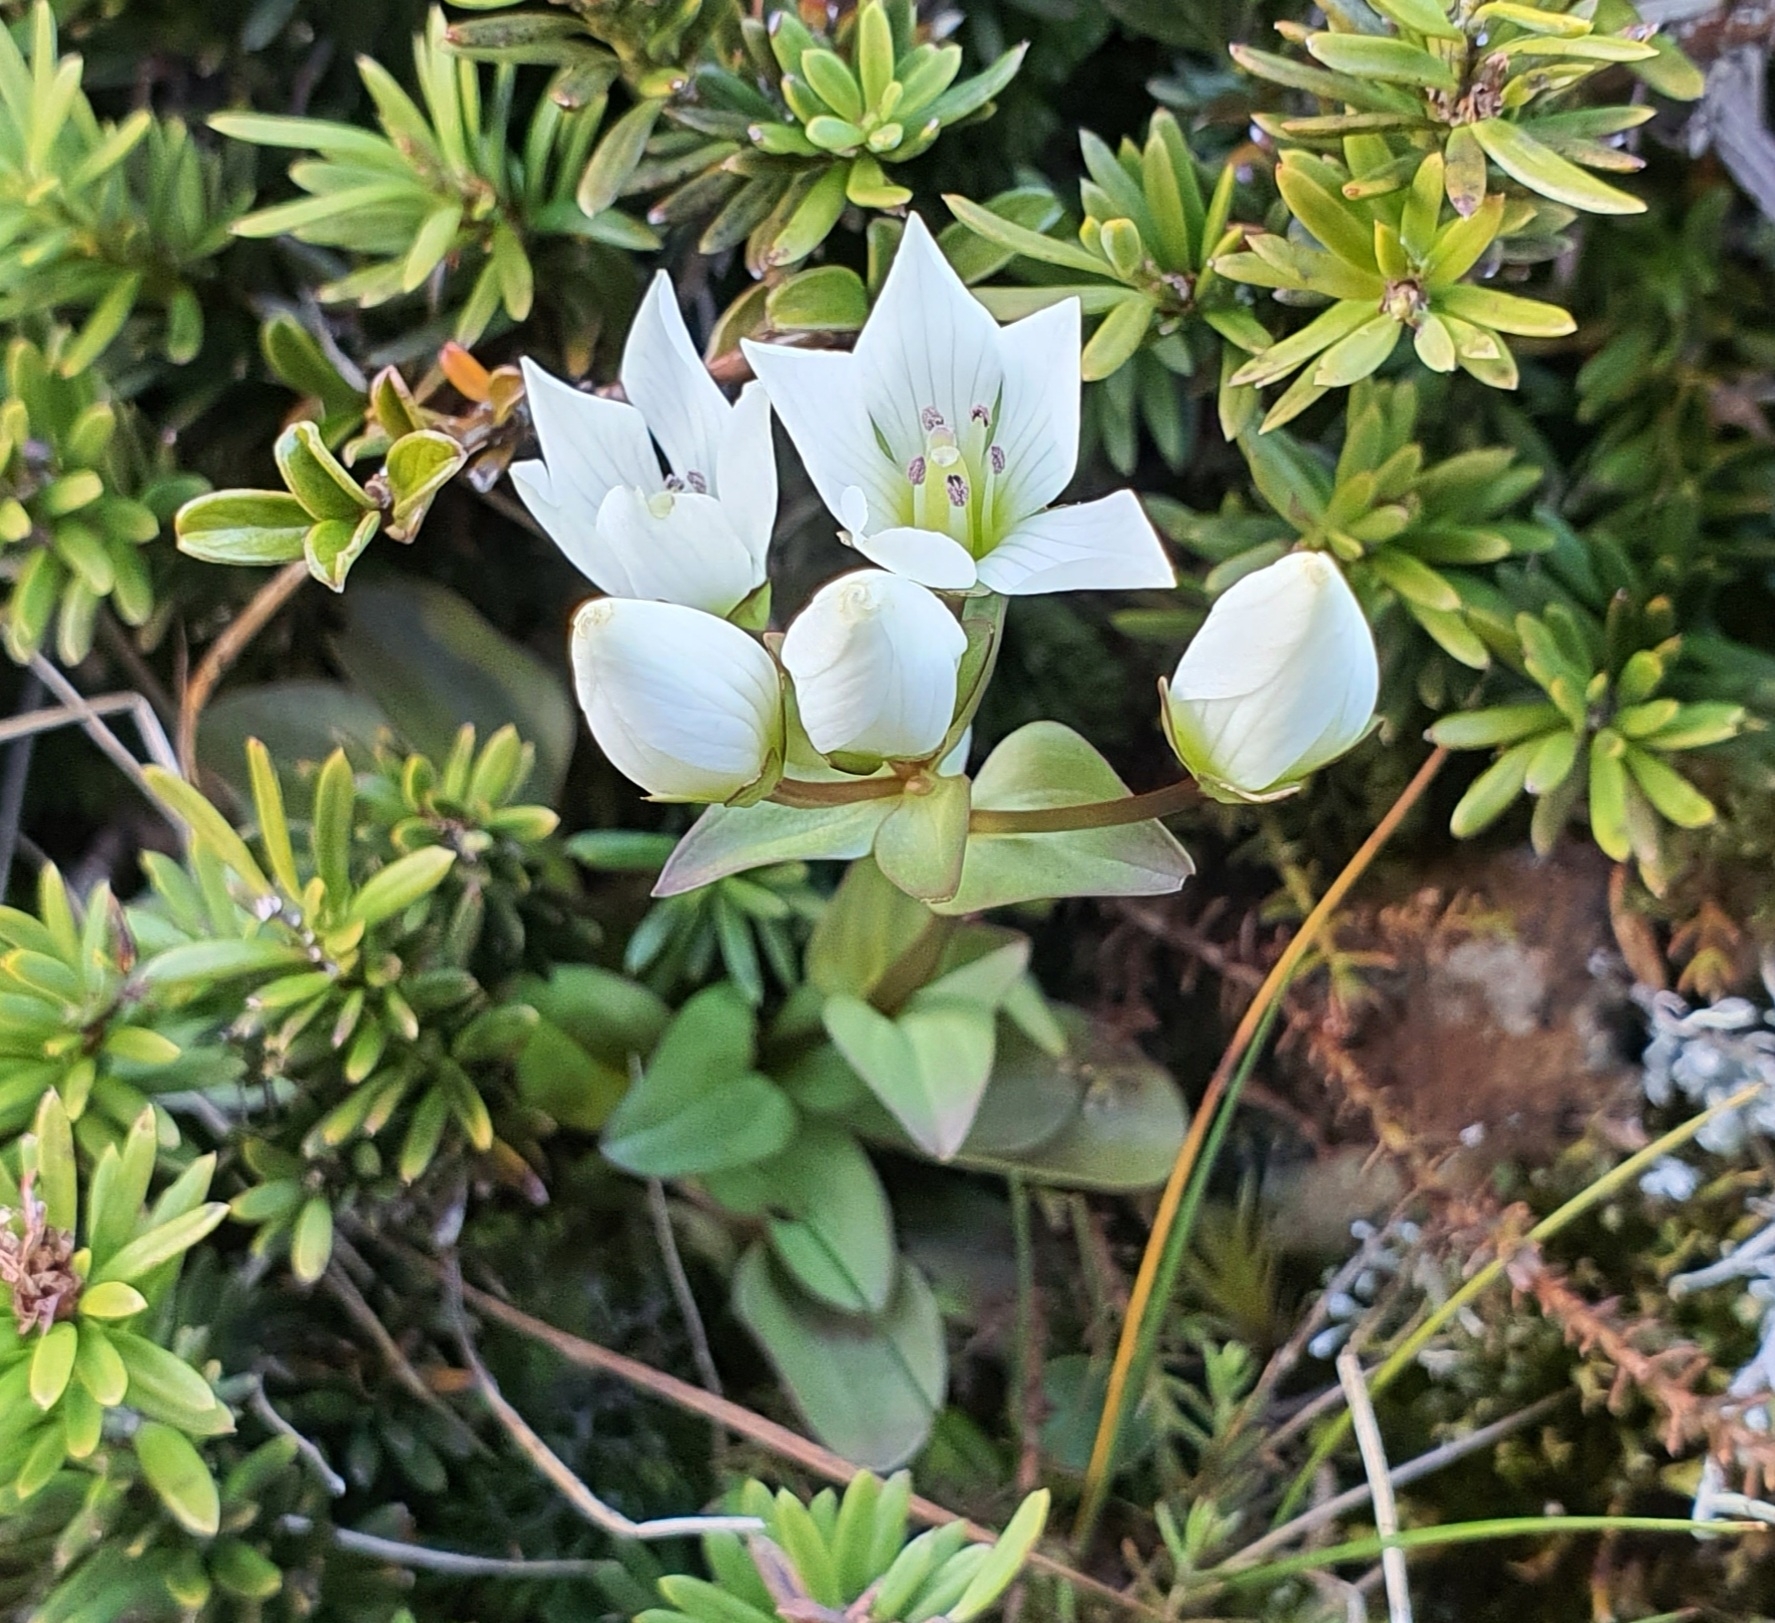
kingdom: Plantae
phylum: Tracheophyta
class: Magnoliopsida
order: Gentianales
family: Gentianaceae
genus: Gentianella
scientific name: Gentianella montana
